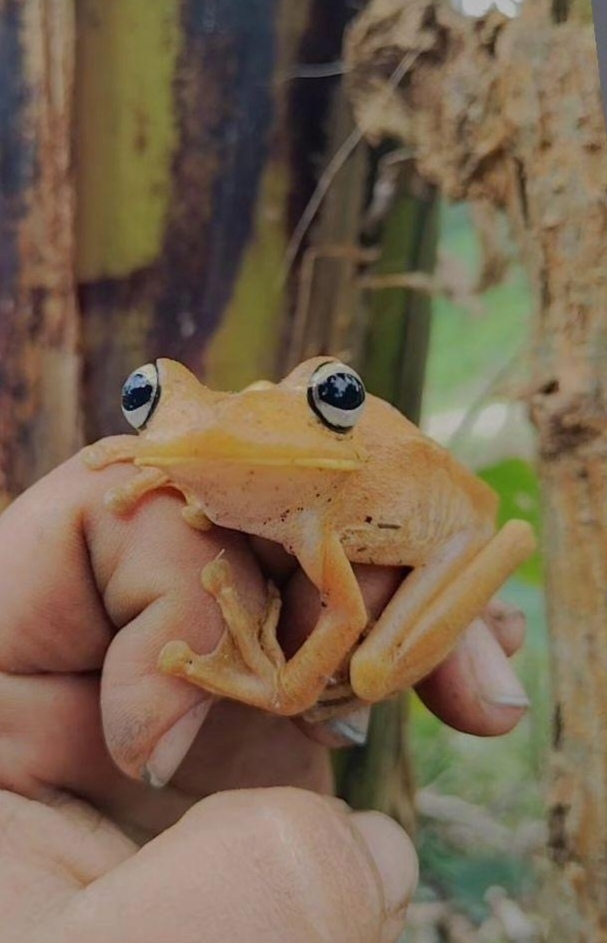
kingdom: Animalia
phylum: Chordata
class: Amphibia
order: Anura
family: Hylidae
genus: Boana
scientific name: Boana rosenbergi
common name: Rosenberg´s gladiator treefrog
